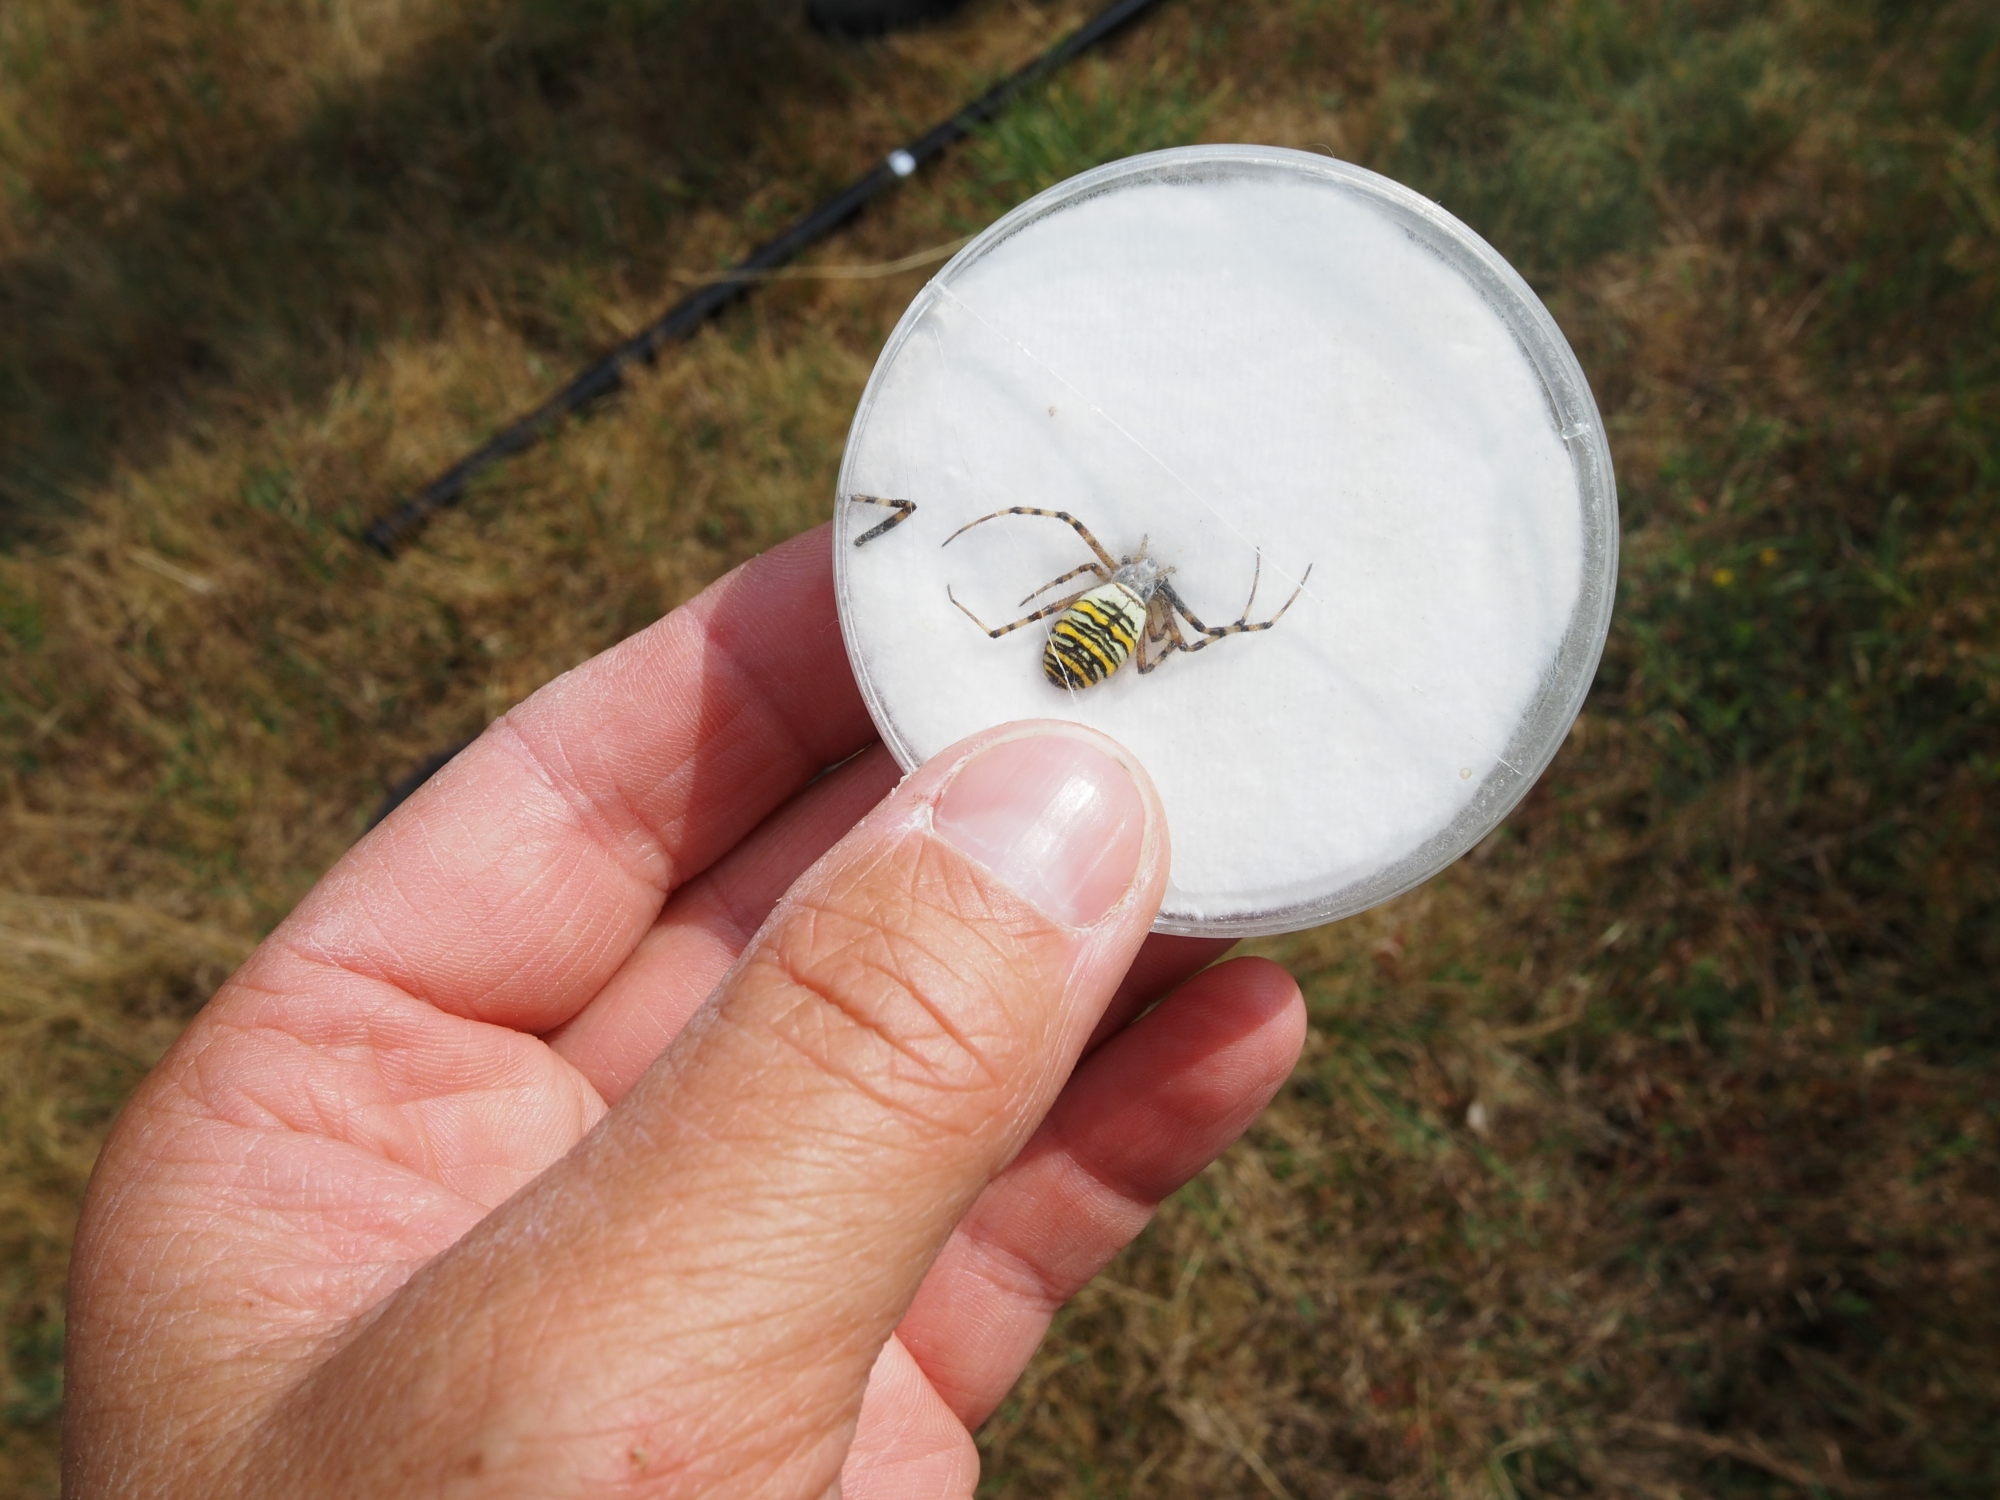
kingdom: Animalia
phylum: Arthropoda
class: Arachnida
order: Araneae
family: Araneidae
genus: Argiope
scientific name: Argiope bruennichi
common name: Wasp spider
